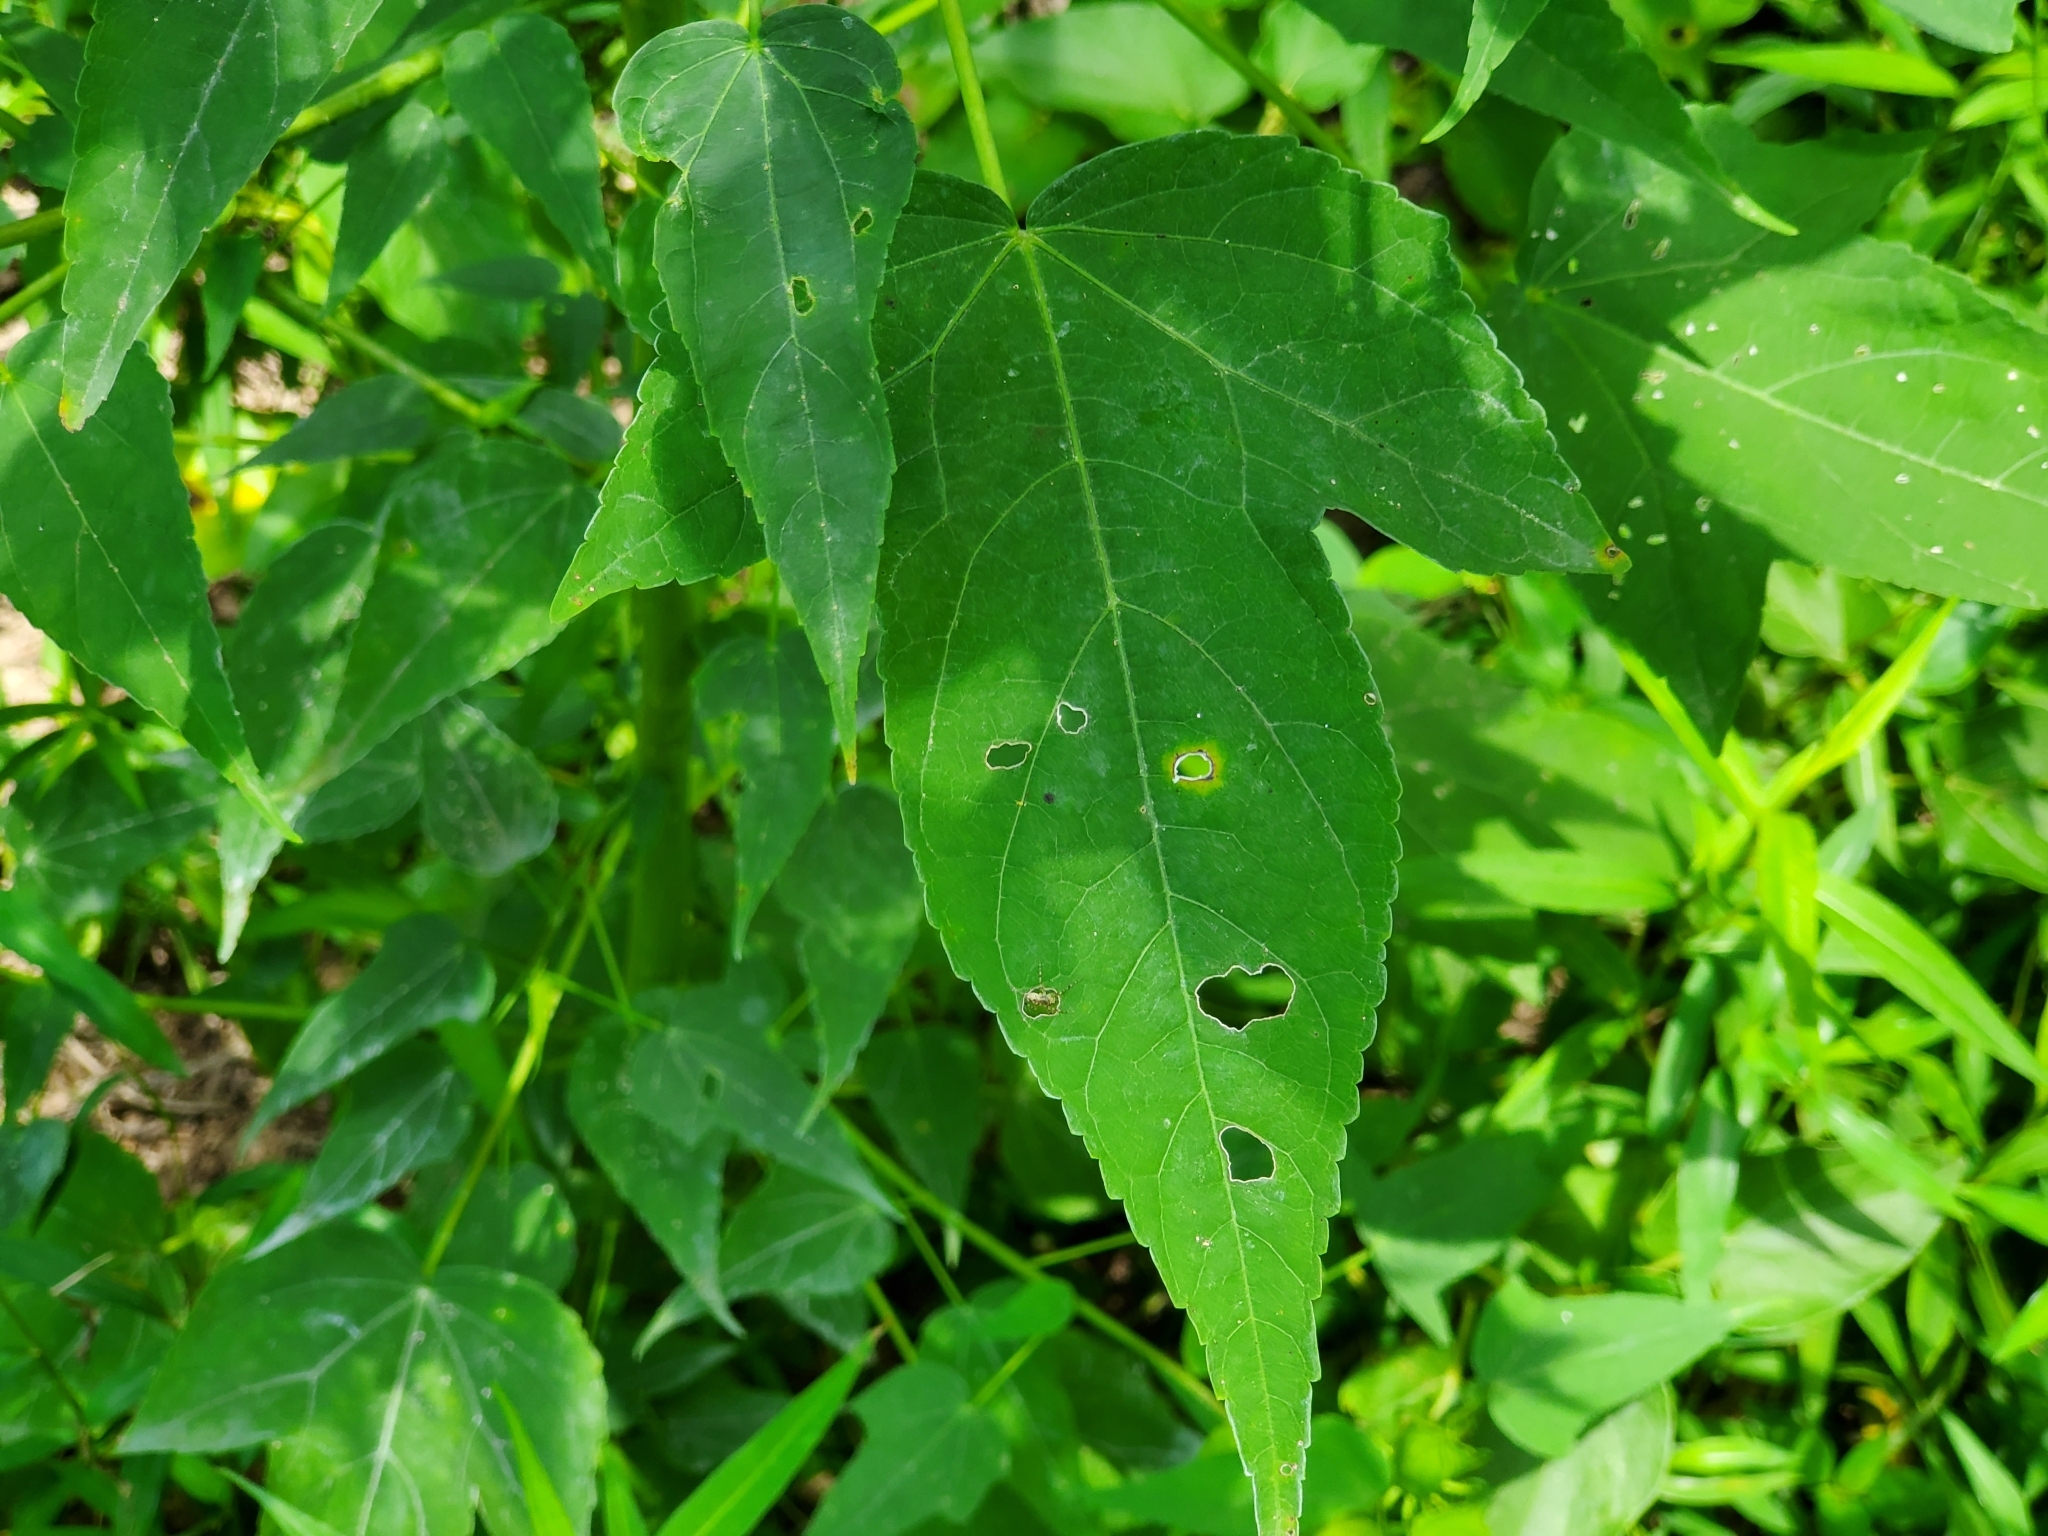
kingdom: Plantae
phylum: Tracheophyta
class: Magnoliopsida
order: Malvales
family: Malvaceae
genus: Hibiscus
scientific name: Hibiscus laevis
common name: Scarlet rose-mallow
